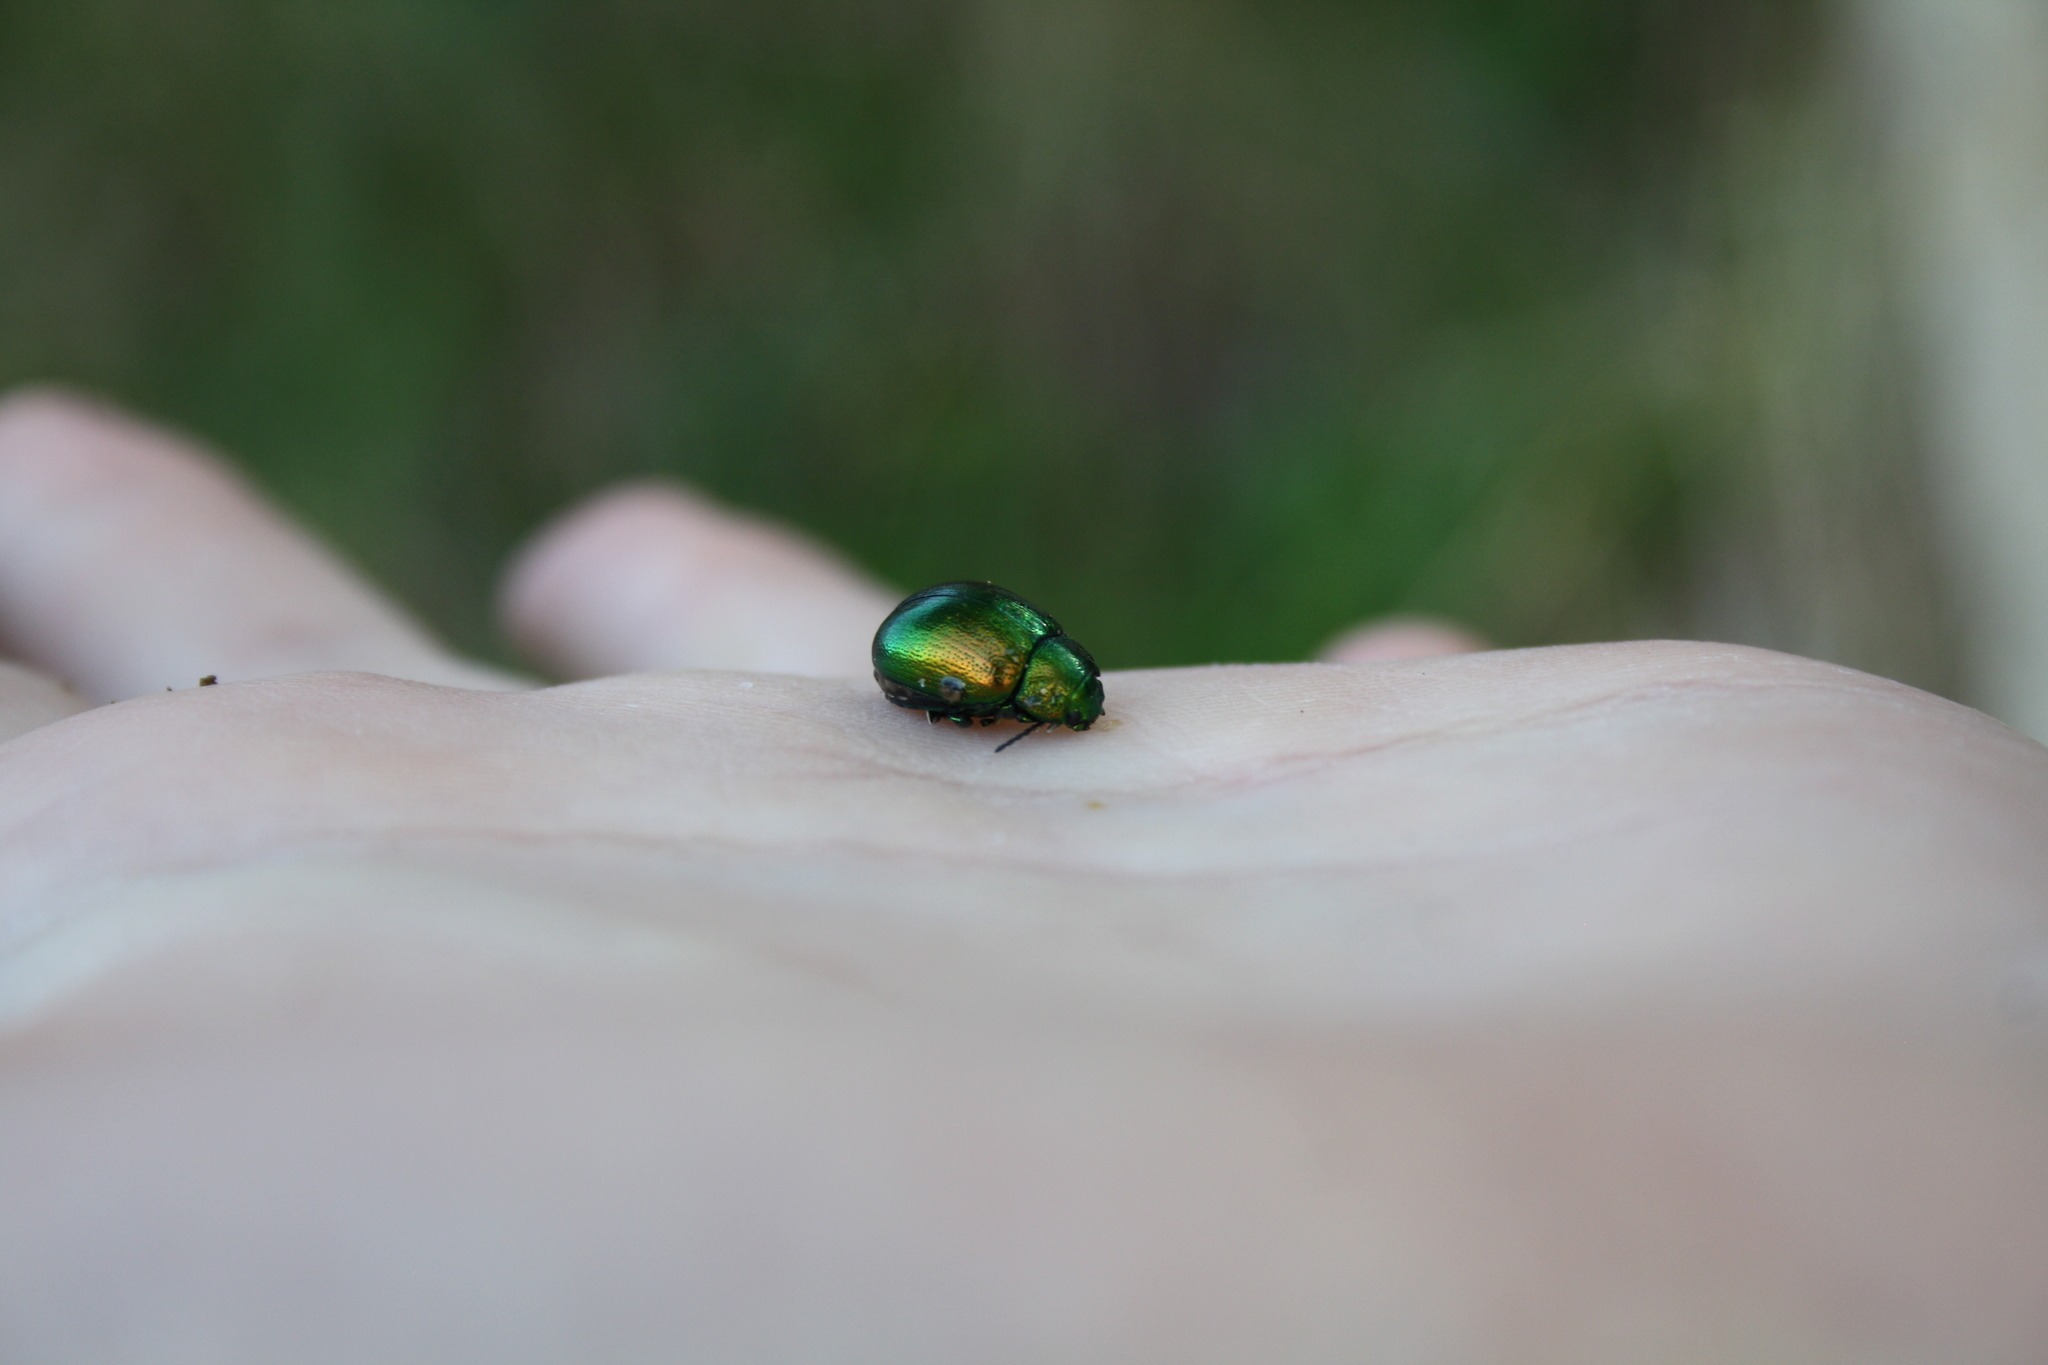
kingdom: Animalia
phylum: Arthropoda
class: Insecta
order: Coleoptera
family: Chrysomelidae
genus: Chrysolina
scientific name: Chrysolina herbacea
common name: Mint leaf beatle
